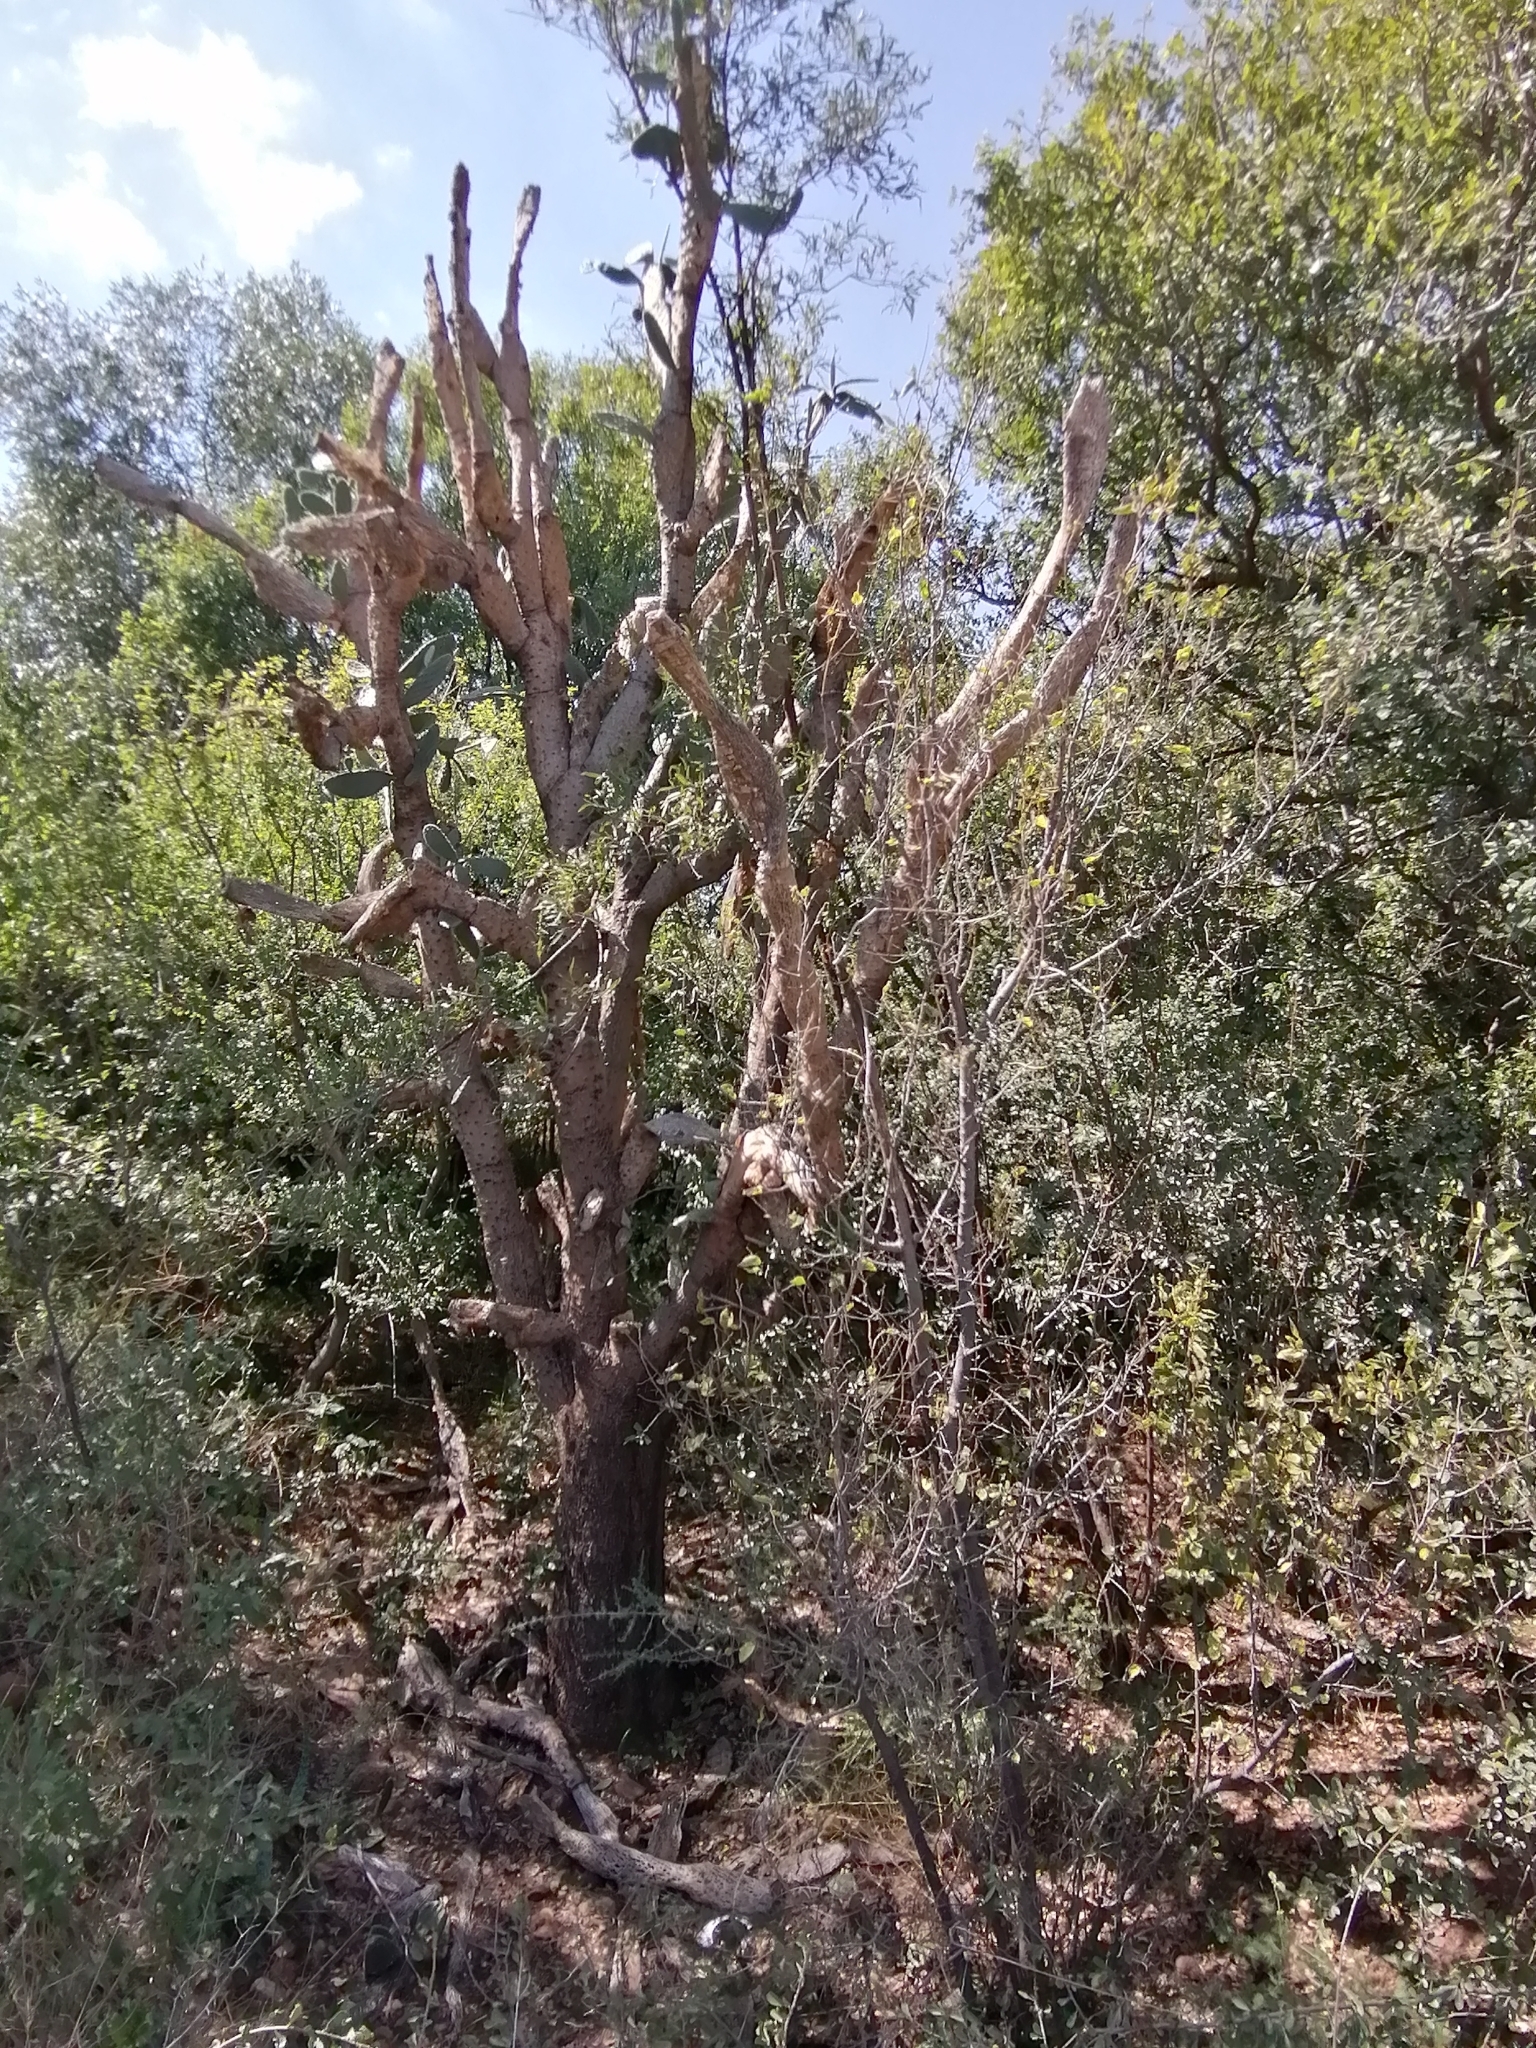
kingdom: Plantae
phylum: Tracheophyta
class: Magnoliopsida
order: Caryophyllales
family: Cactaceae
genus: Opuntia
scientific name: Opuntia tomentosa
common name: Woollyjoint pricklypear
